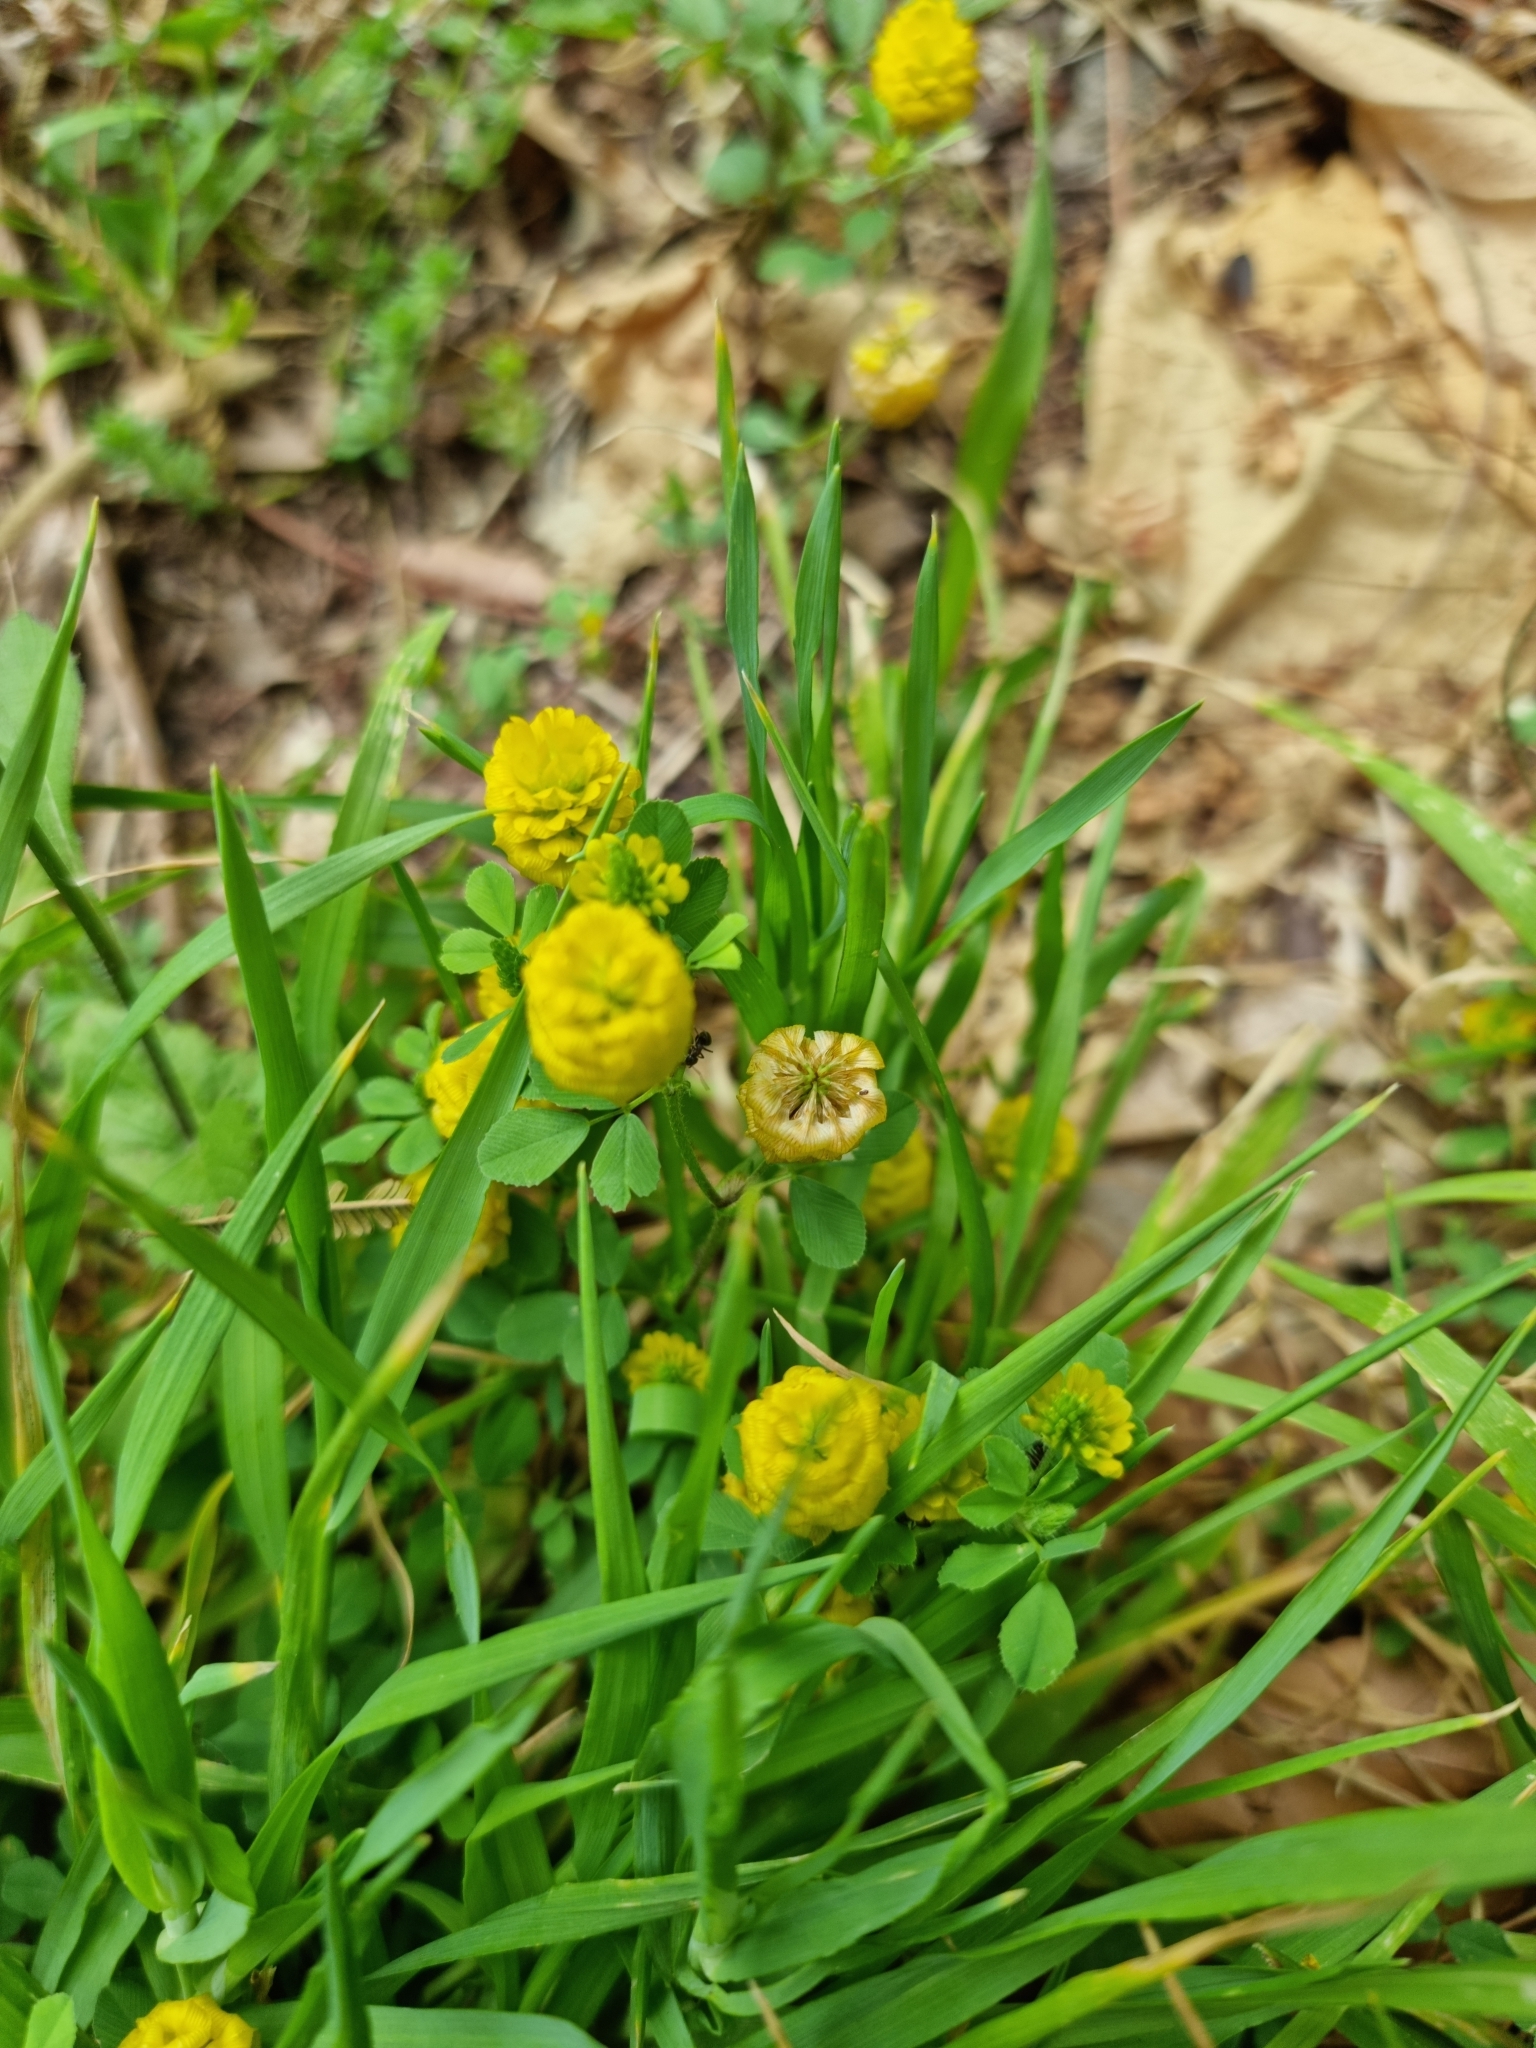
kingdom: Plantae
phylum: Tracheophyta
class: Magnoliopsida
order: Fabales
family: Fabaceae
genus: Trifolium
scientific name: Trifolium campestre
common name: Field clover
